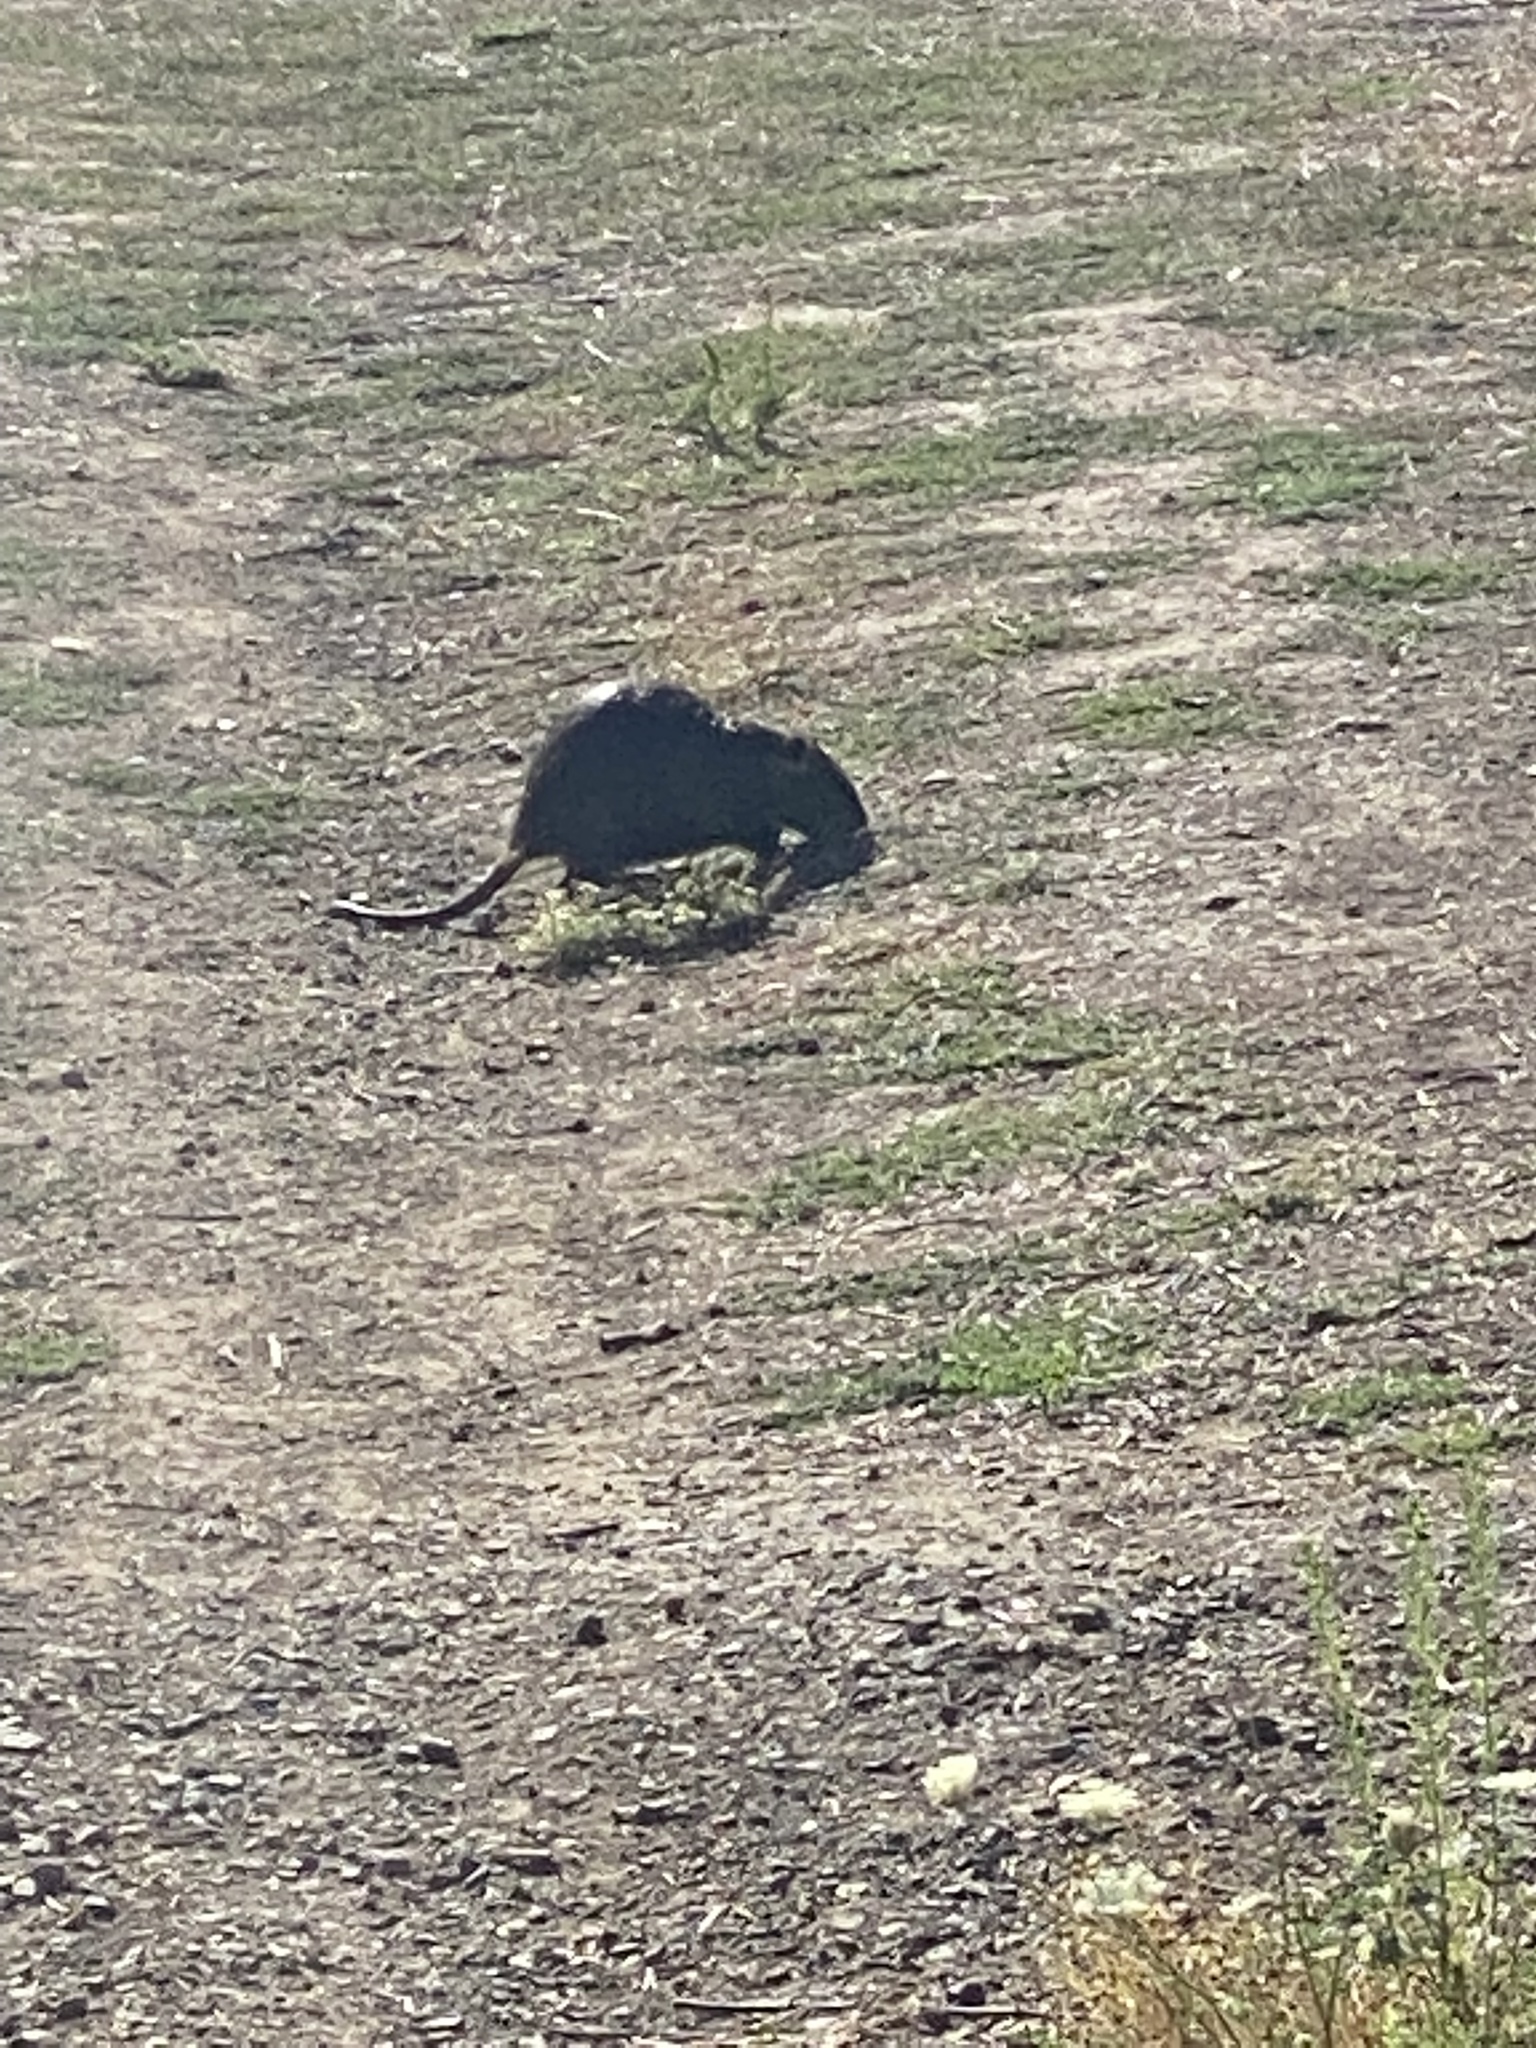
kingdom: Animalia
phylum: Chordata
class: Mammalia
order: Rodentia
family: Myocastoridae
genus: Myocastor
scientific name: Myocastor coypus
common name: Coypu
